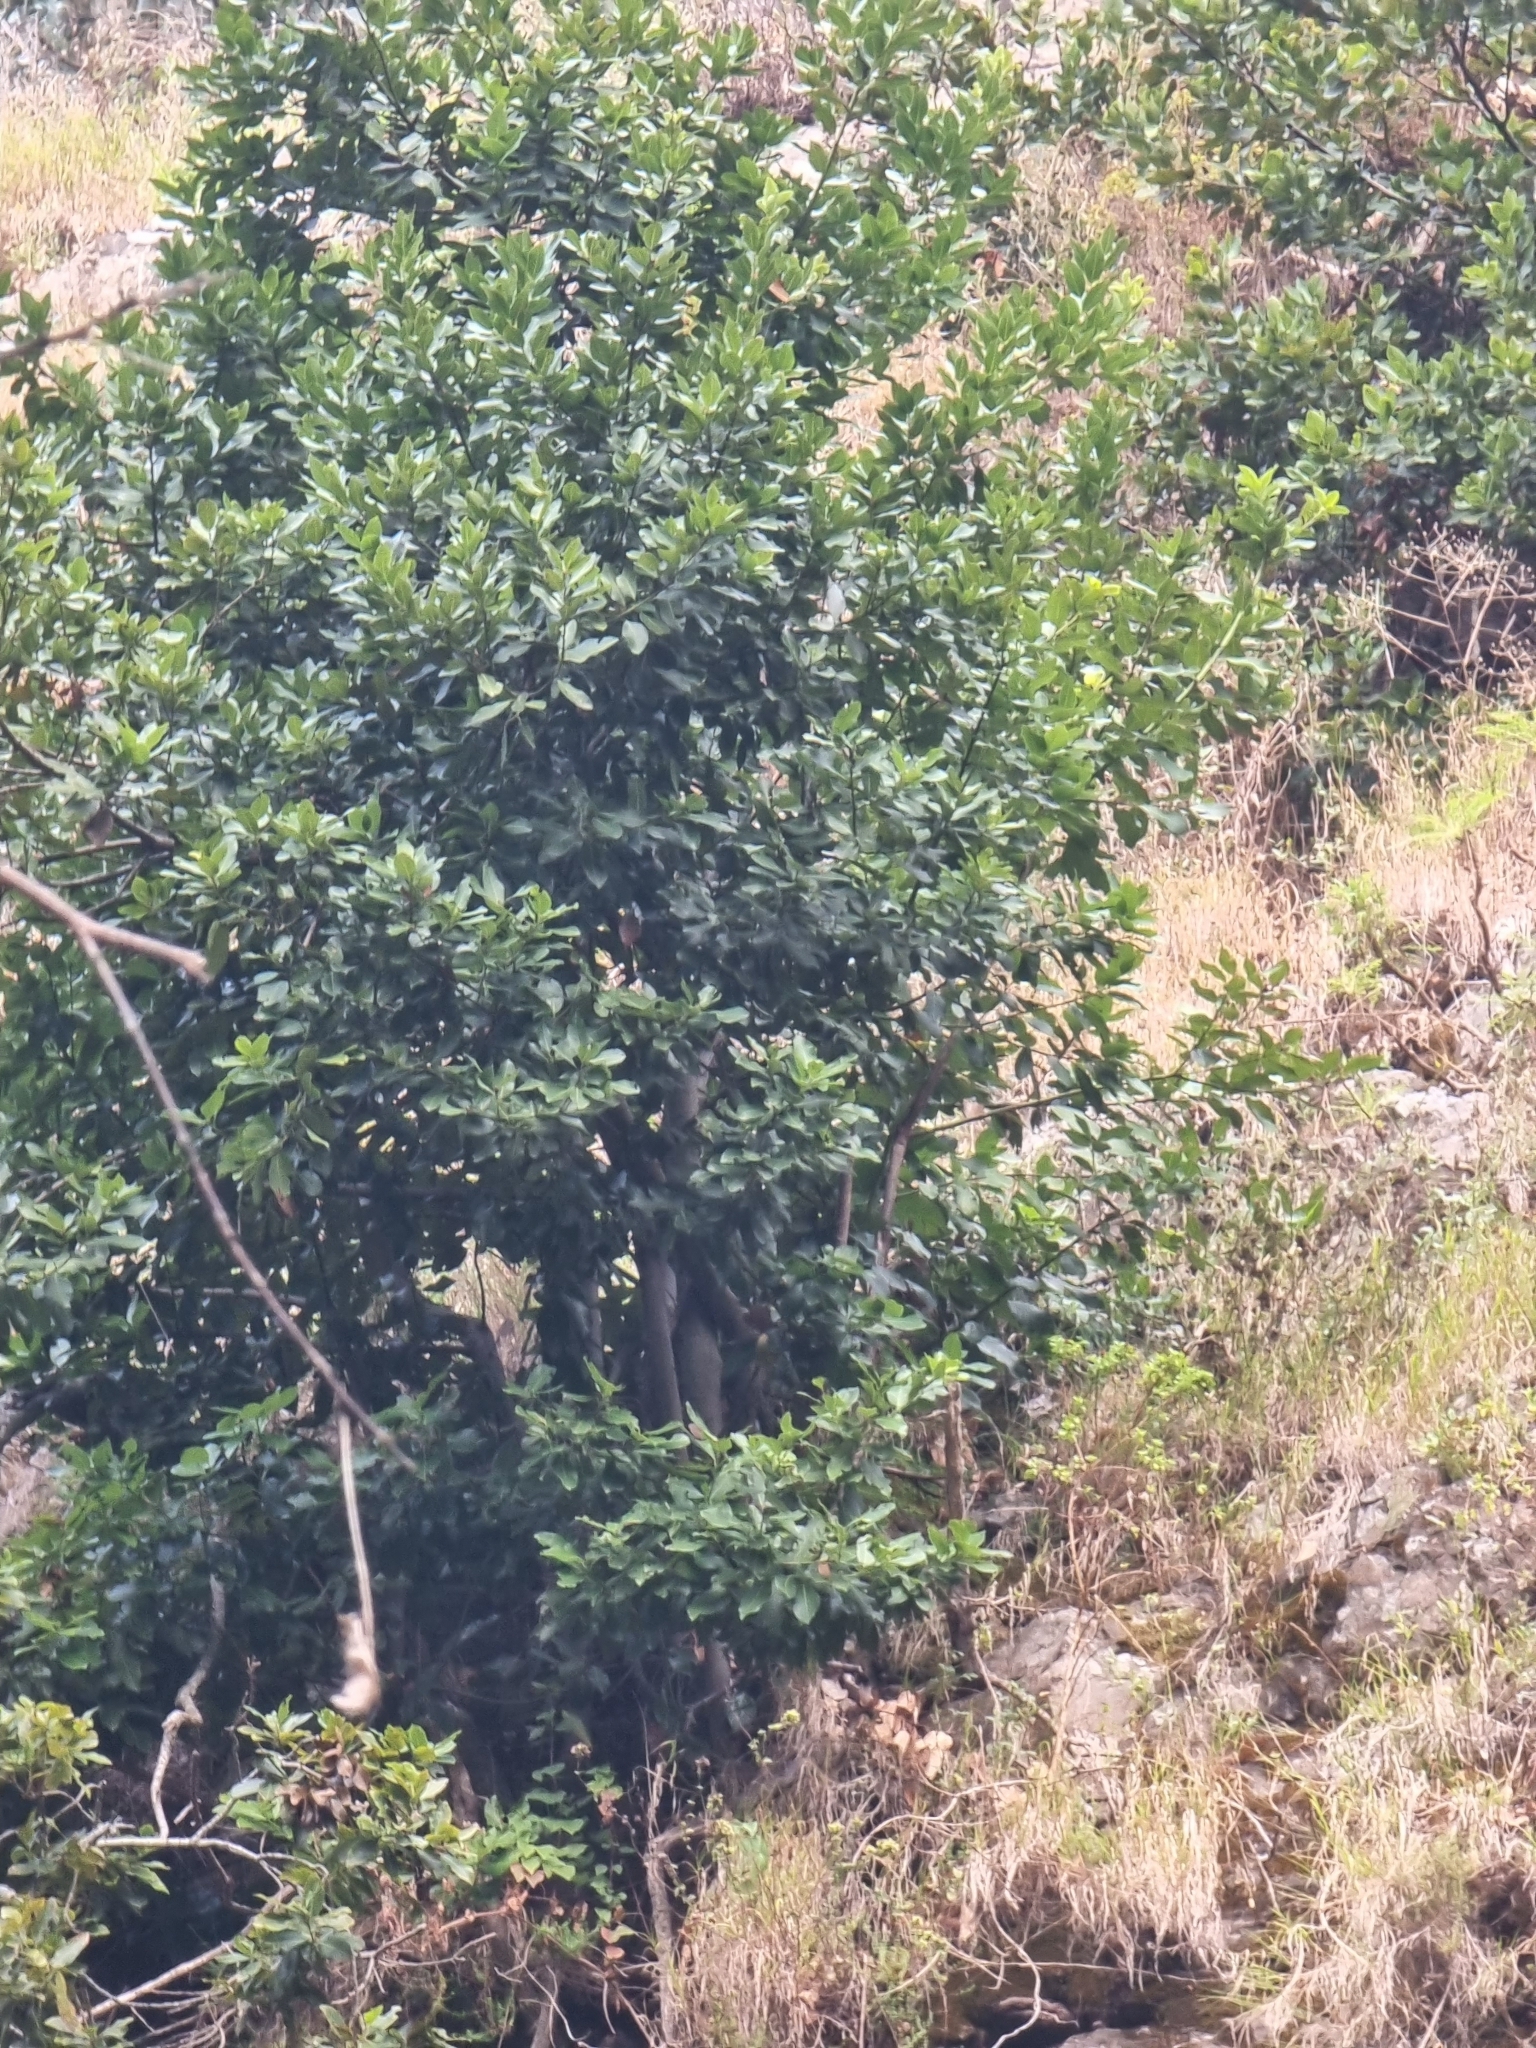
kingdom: Plantae
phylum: Tracheophyta
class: Magnoliopsida
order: Laurales
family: Lauraceae
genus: Laurus
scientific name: Laurus novocanariensis
